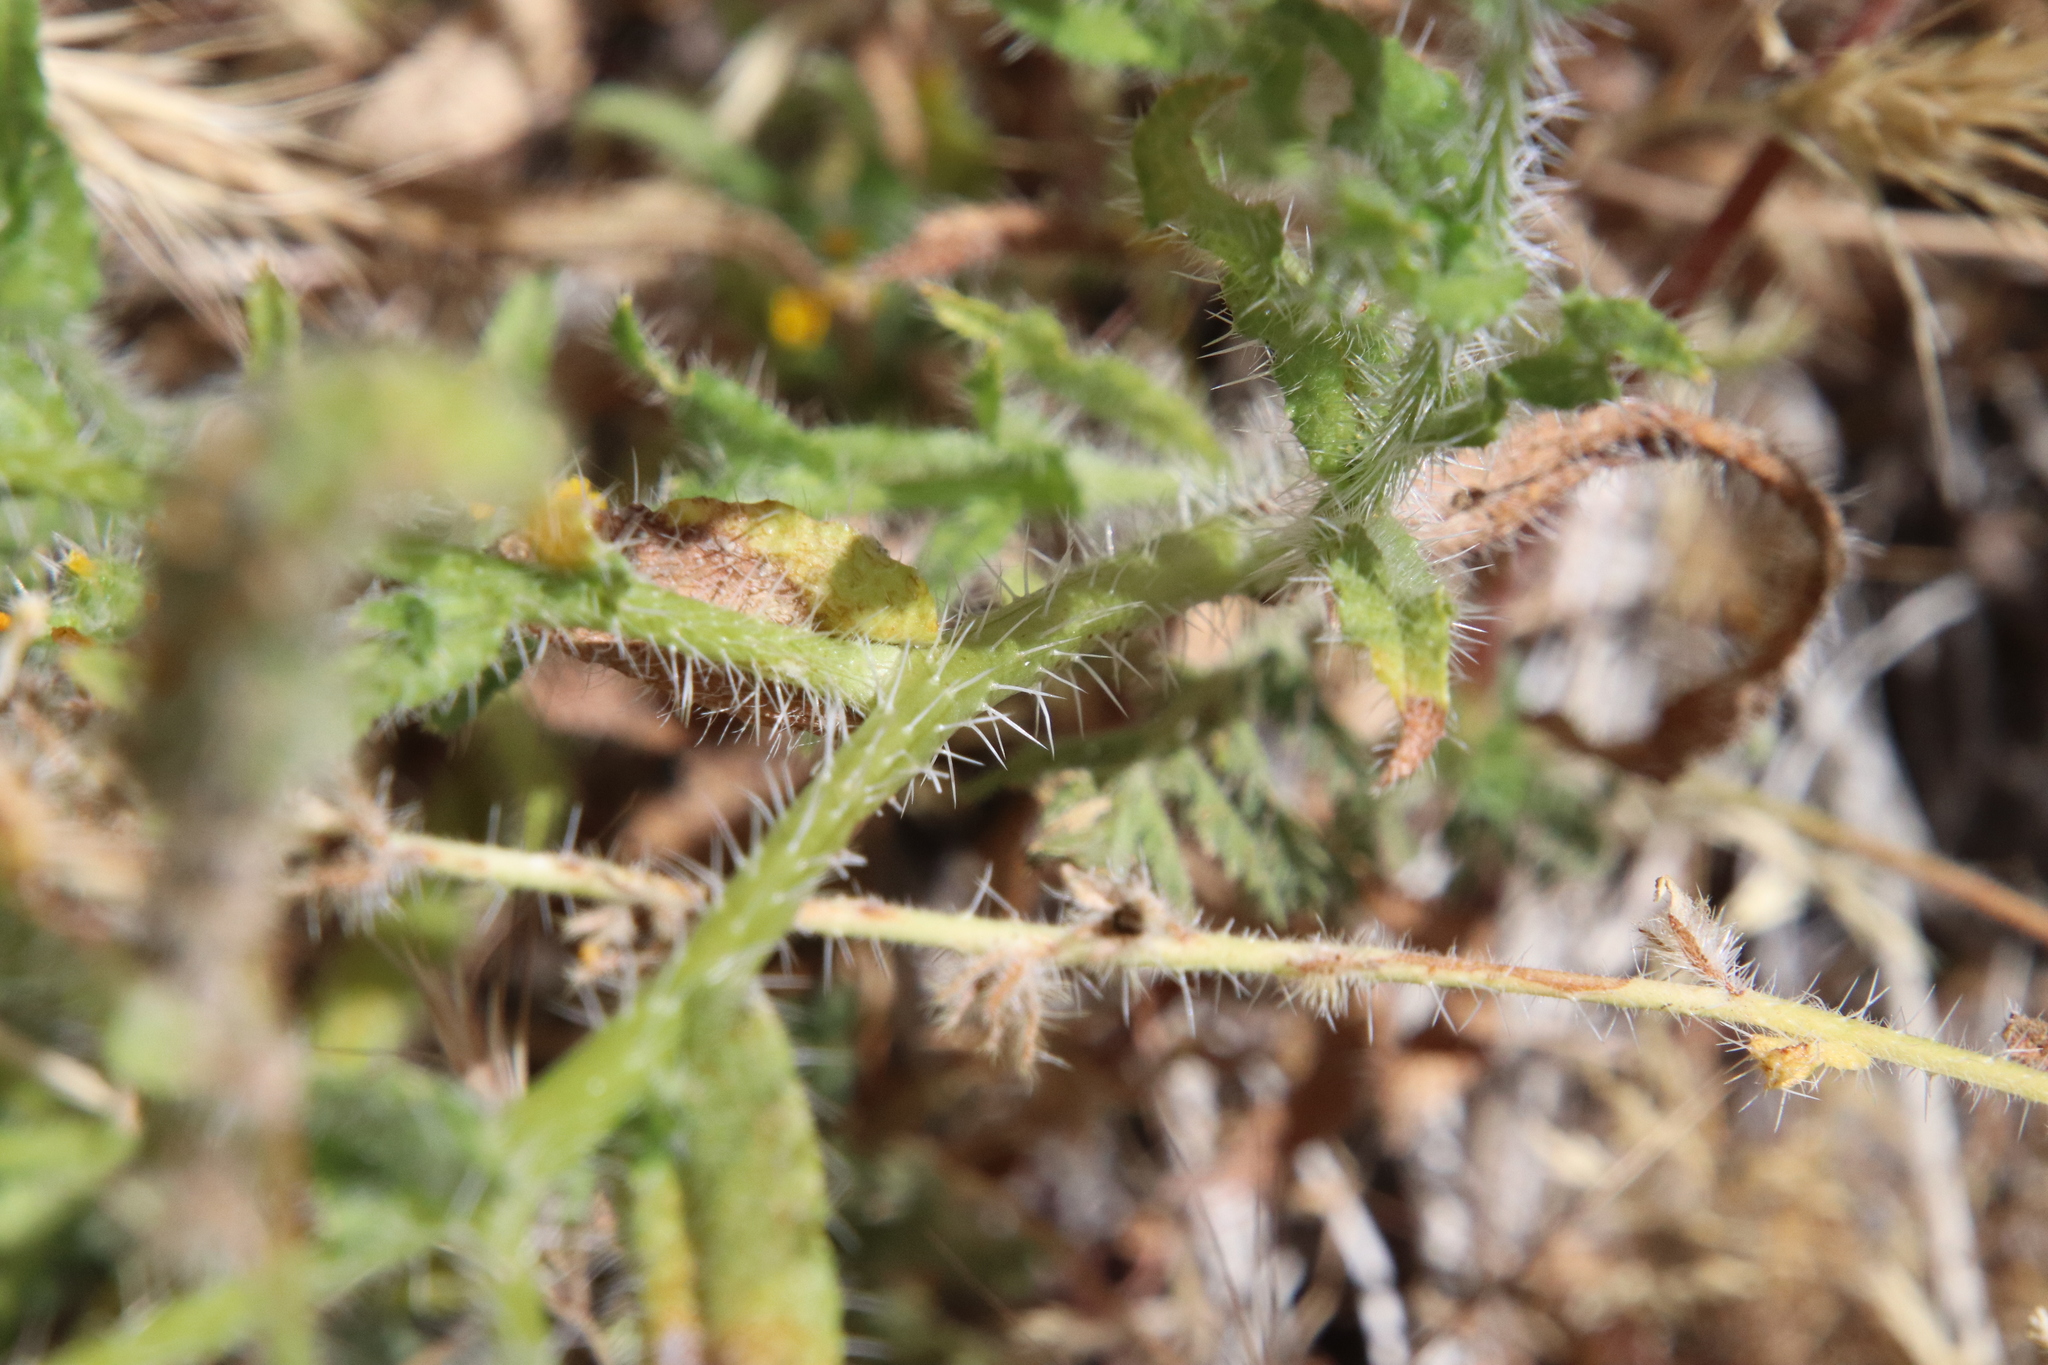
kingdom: Plantae
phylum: Tracheophyta
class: Magnoliopsida
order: Boraginales
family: Boraginaceae
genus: Amsinckia
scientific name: Amsinckia menziesii
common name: Menzies' fiddleneck
